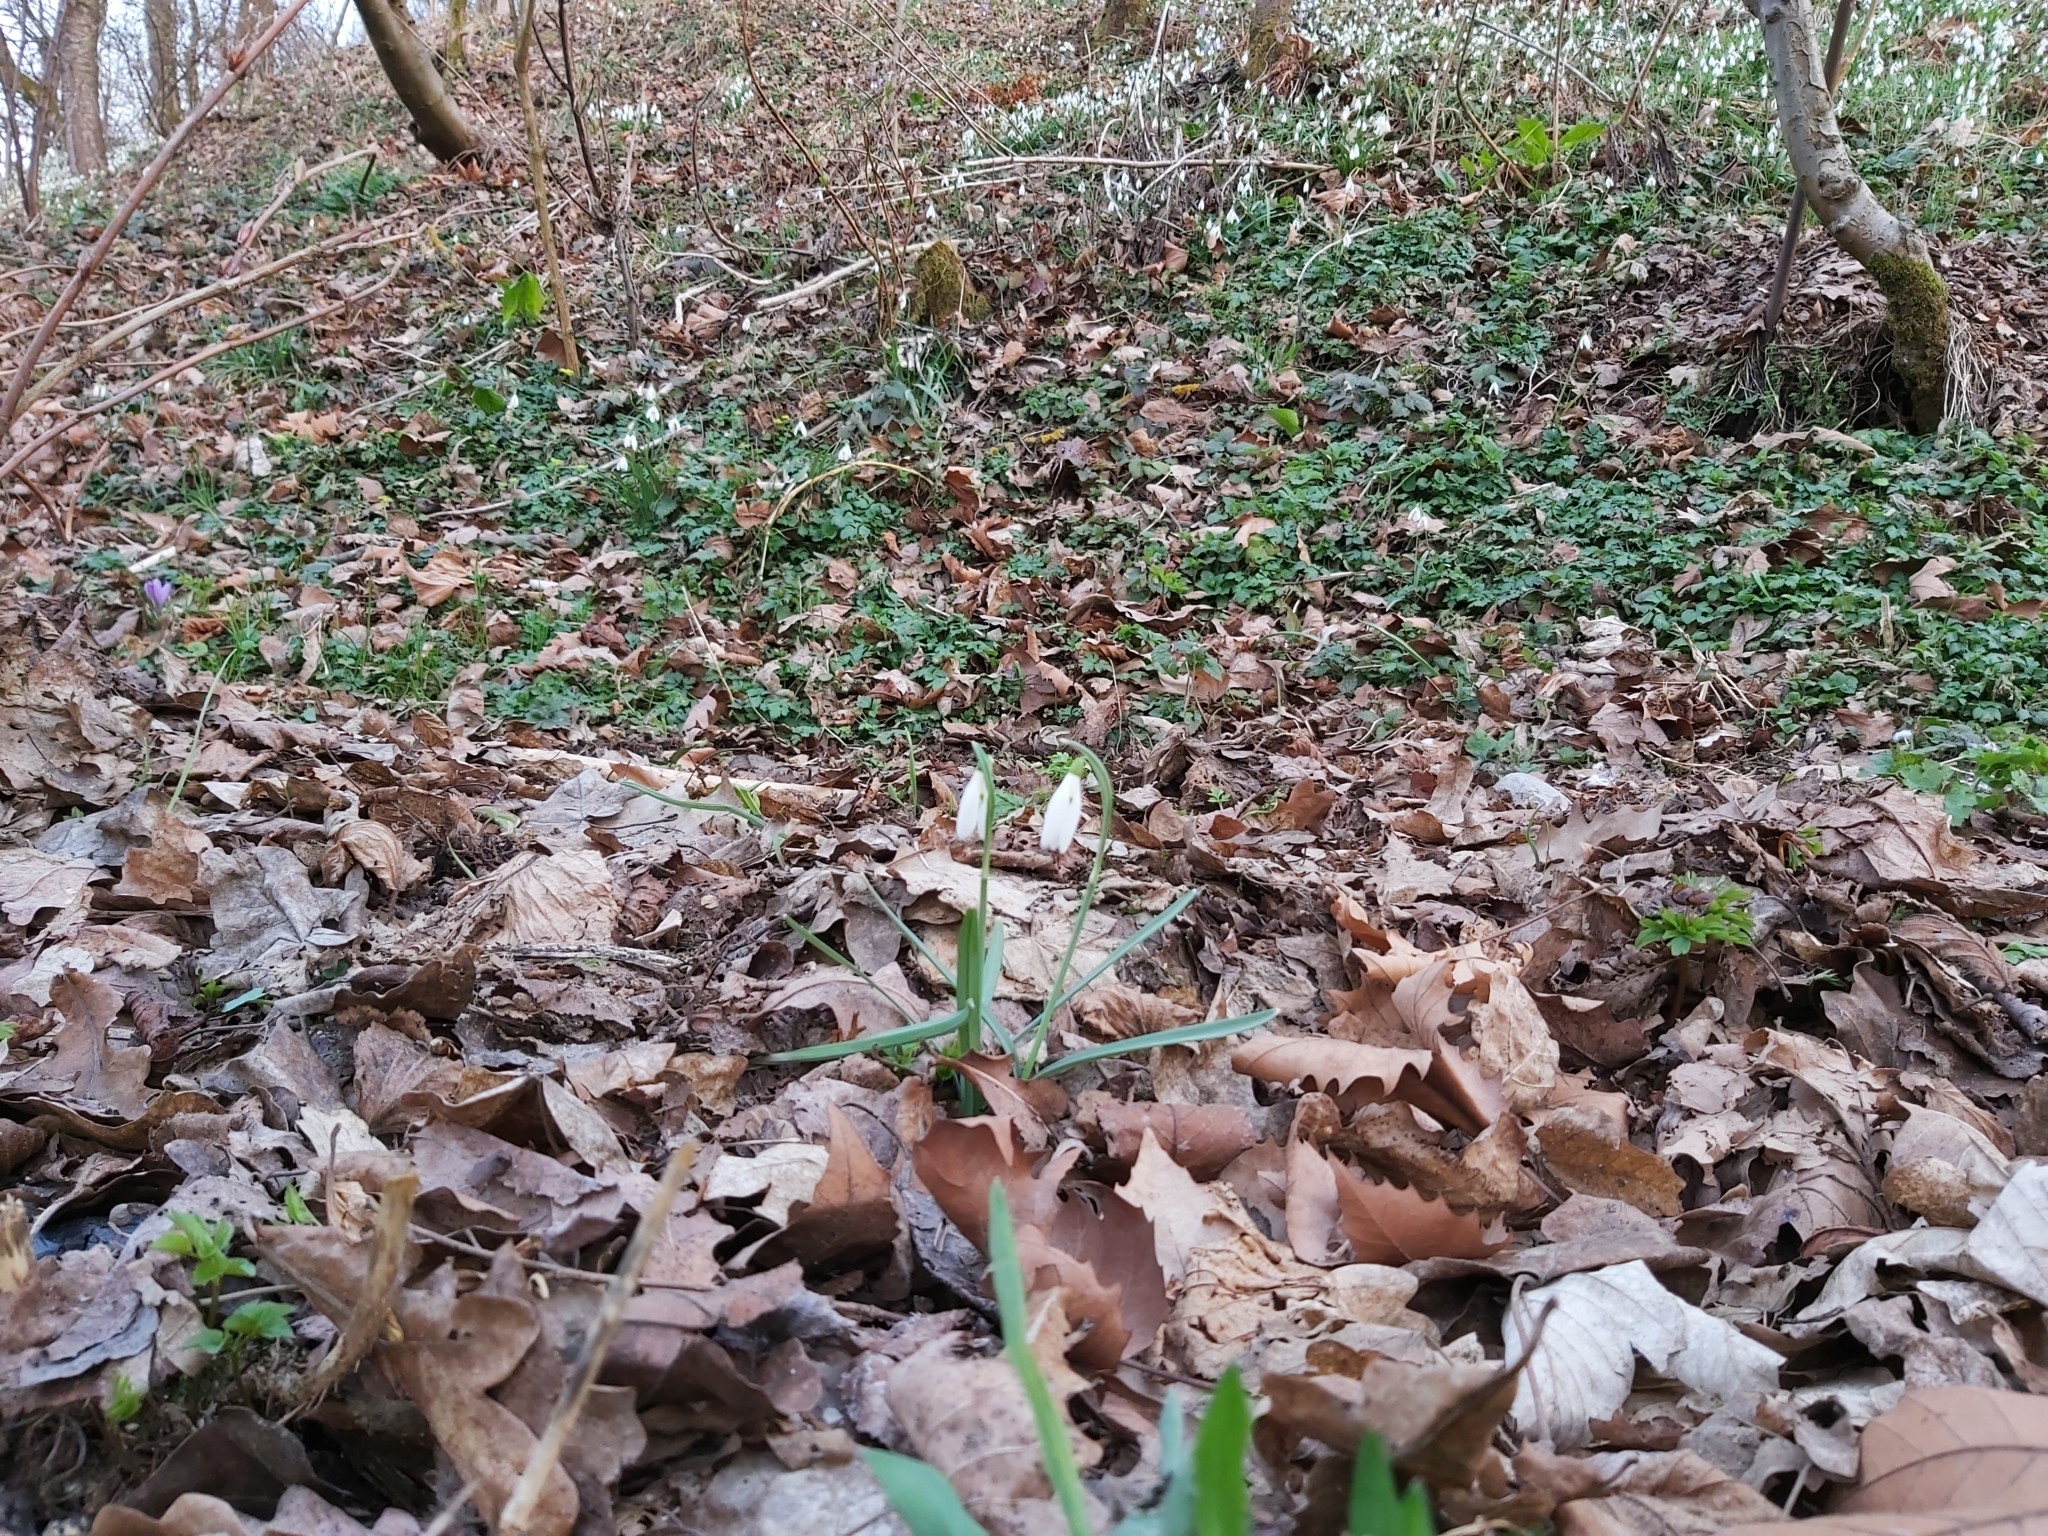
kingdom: Plantae
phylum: Tracheophyta
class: Liliopsida
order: Asparagales
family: Amaryllidaceae
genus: Galanthus
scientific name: Galanthus nivalis
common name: Snowdrop
